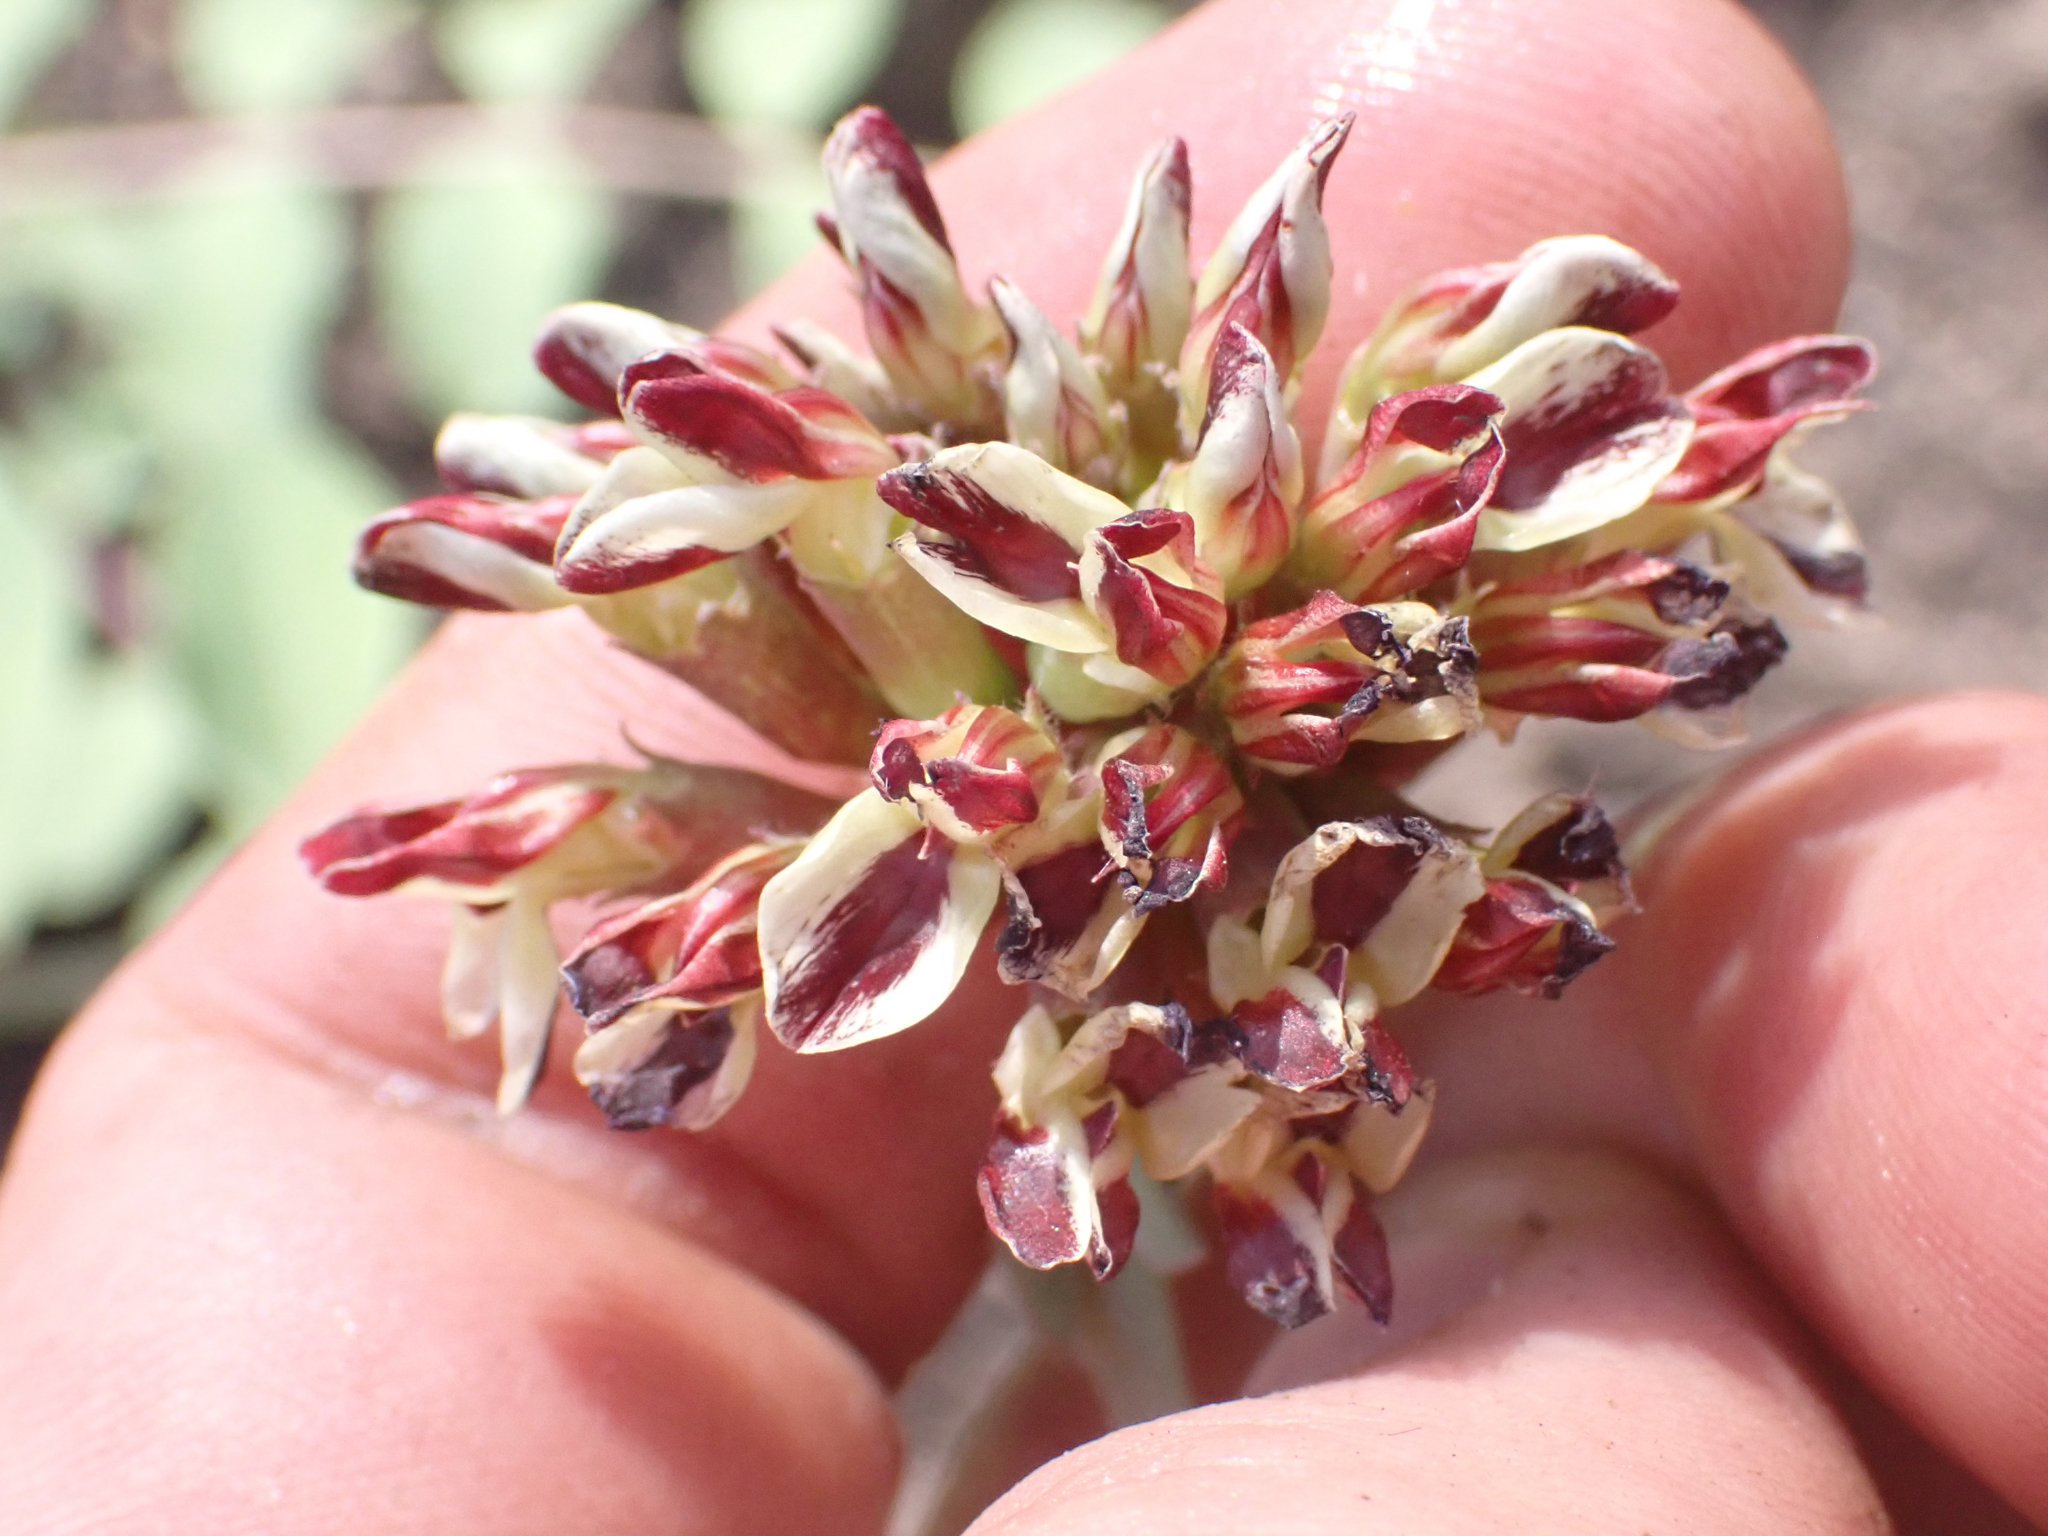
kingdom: Plantae
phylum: Tracheophyta
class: Magnoliopsida
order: Fabales
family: Fabaceae
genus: Hosackia
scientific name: Hosackia crassifolia
